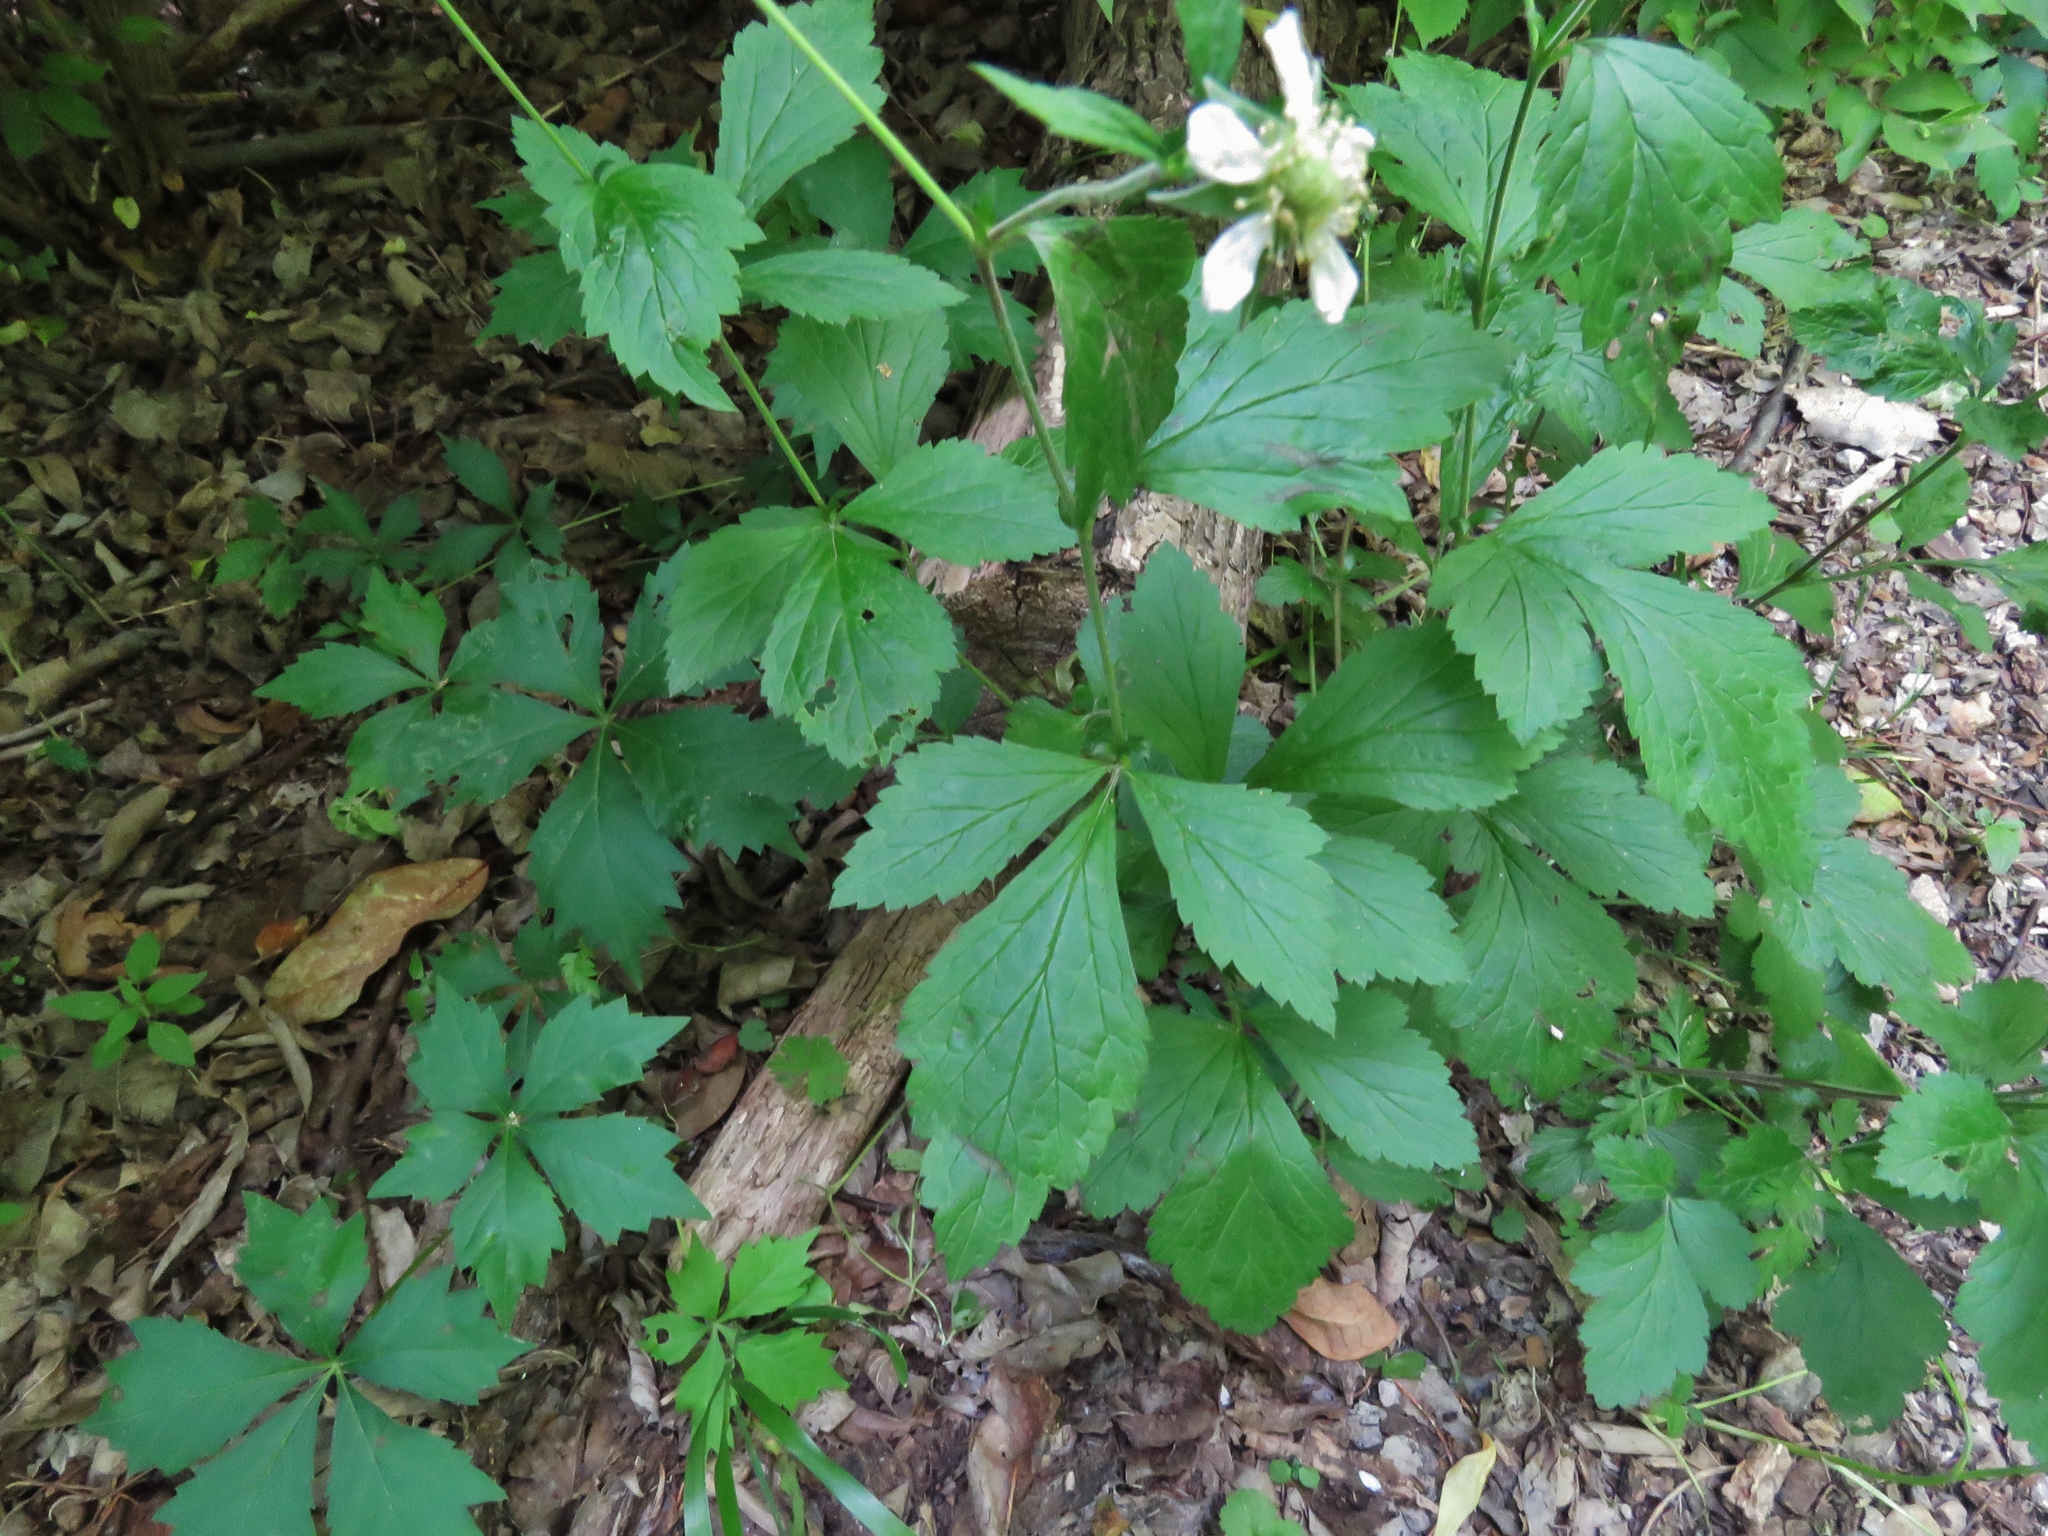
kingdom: Plantae
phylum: Tracheophyta
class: Magnoliopsida
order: Rosales
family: Rosaceae
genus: Geum
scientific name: Geum canadense
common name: White avens
